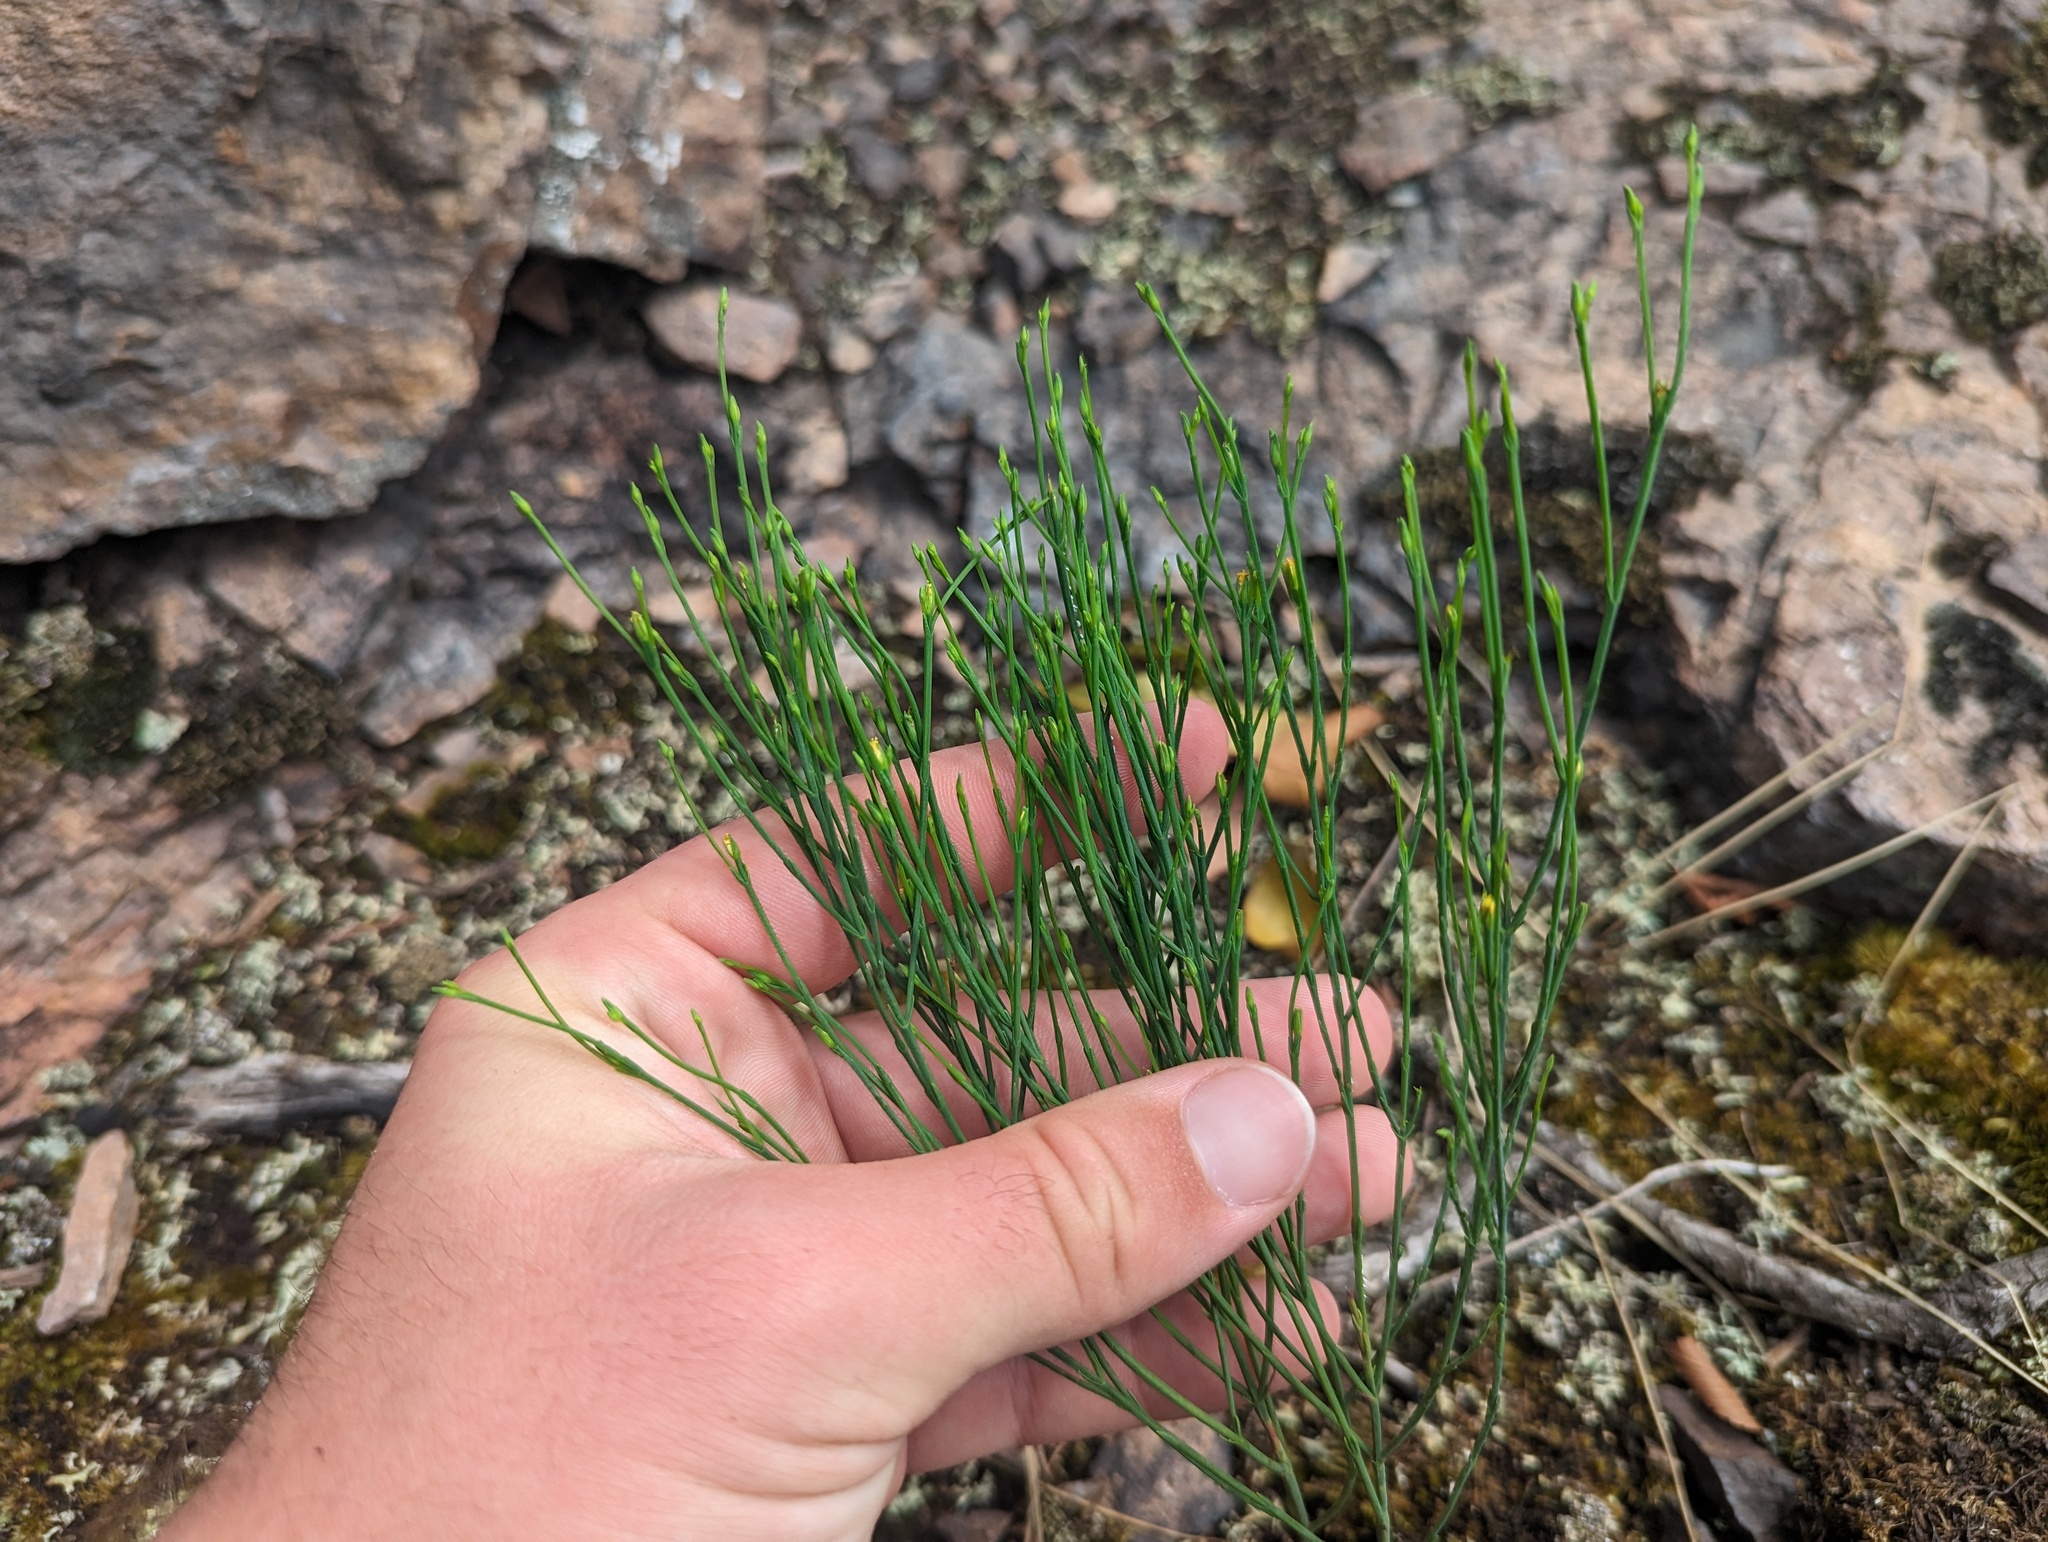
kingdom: Plantae
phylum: Tracheophyta
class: Magnoliopsida
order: Malpighiales
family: Hypericaceae
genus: Hypericum
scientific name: Hypericum gentianoides
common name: Gentian-leaved st. john's-wort
